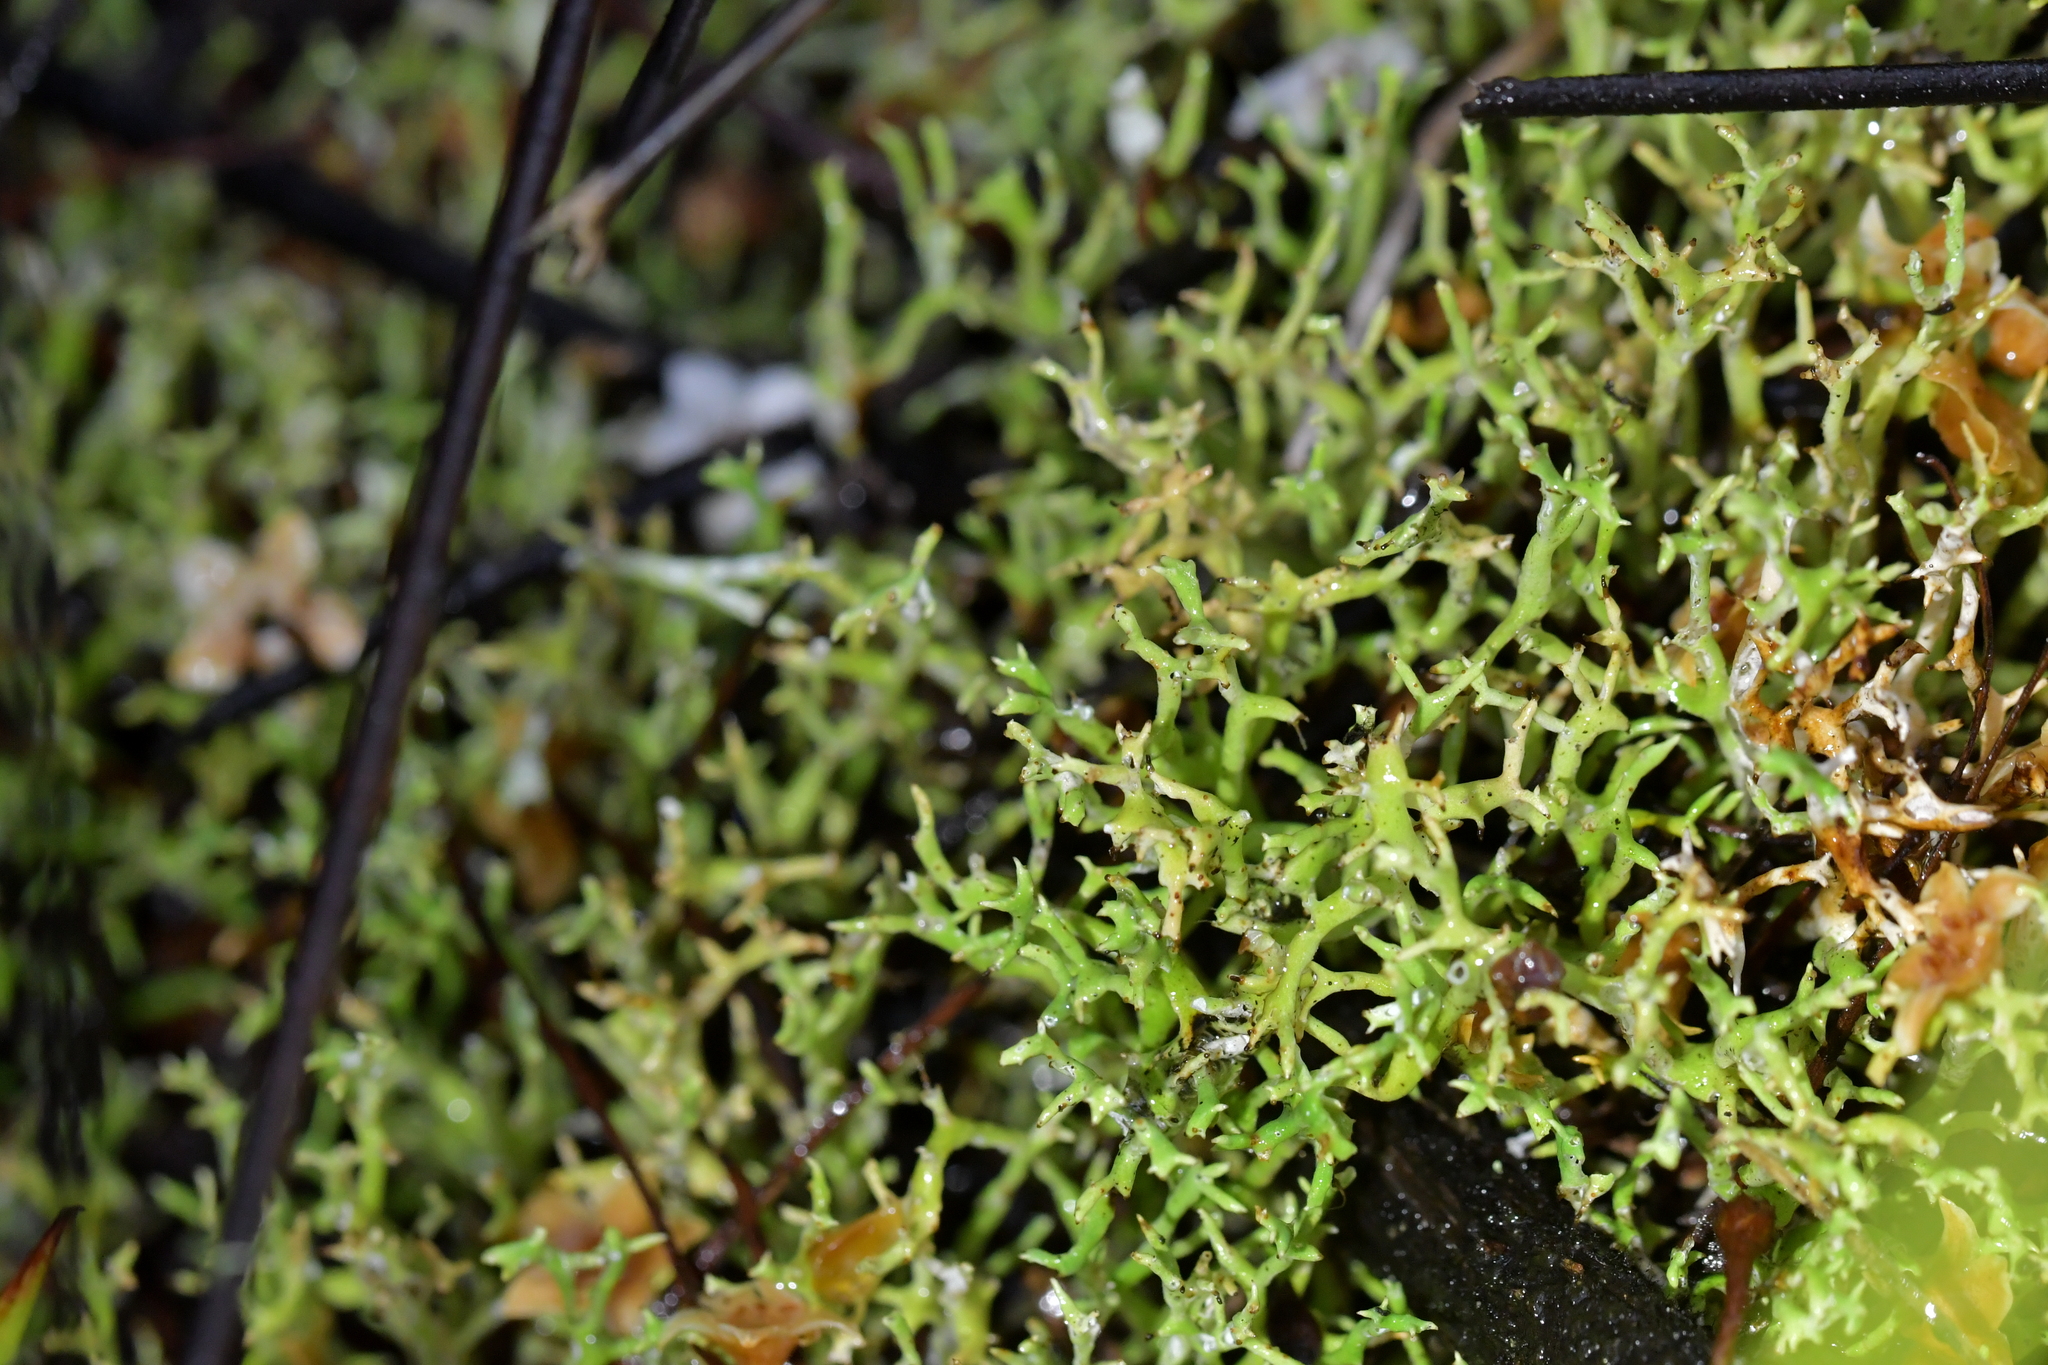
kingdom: Fungi
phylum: Ascomycota
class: Lecanoromycetes
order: Lecanorales
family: Cladoniaceae
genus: Cladia
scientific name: Cladia aggregata
